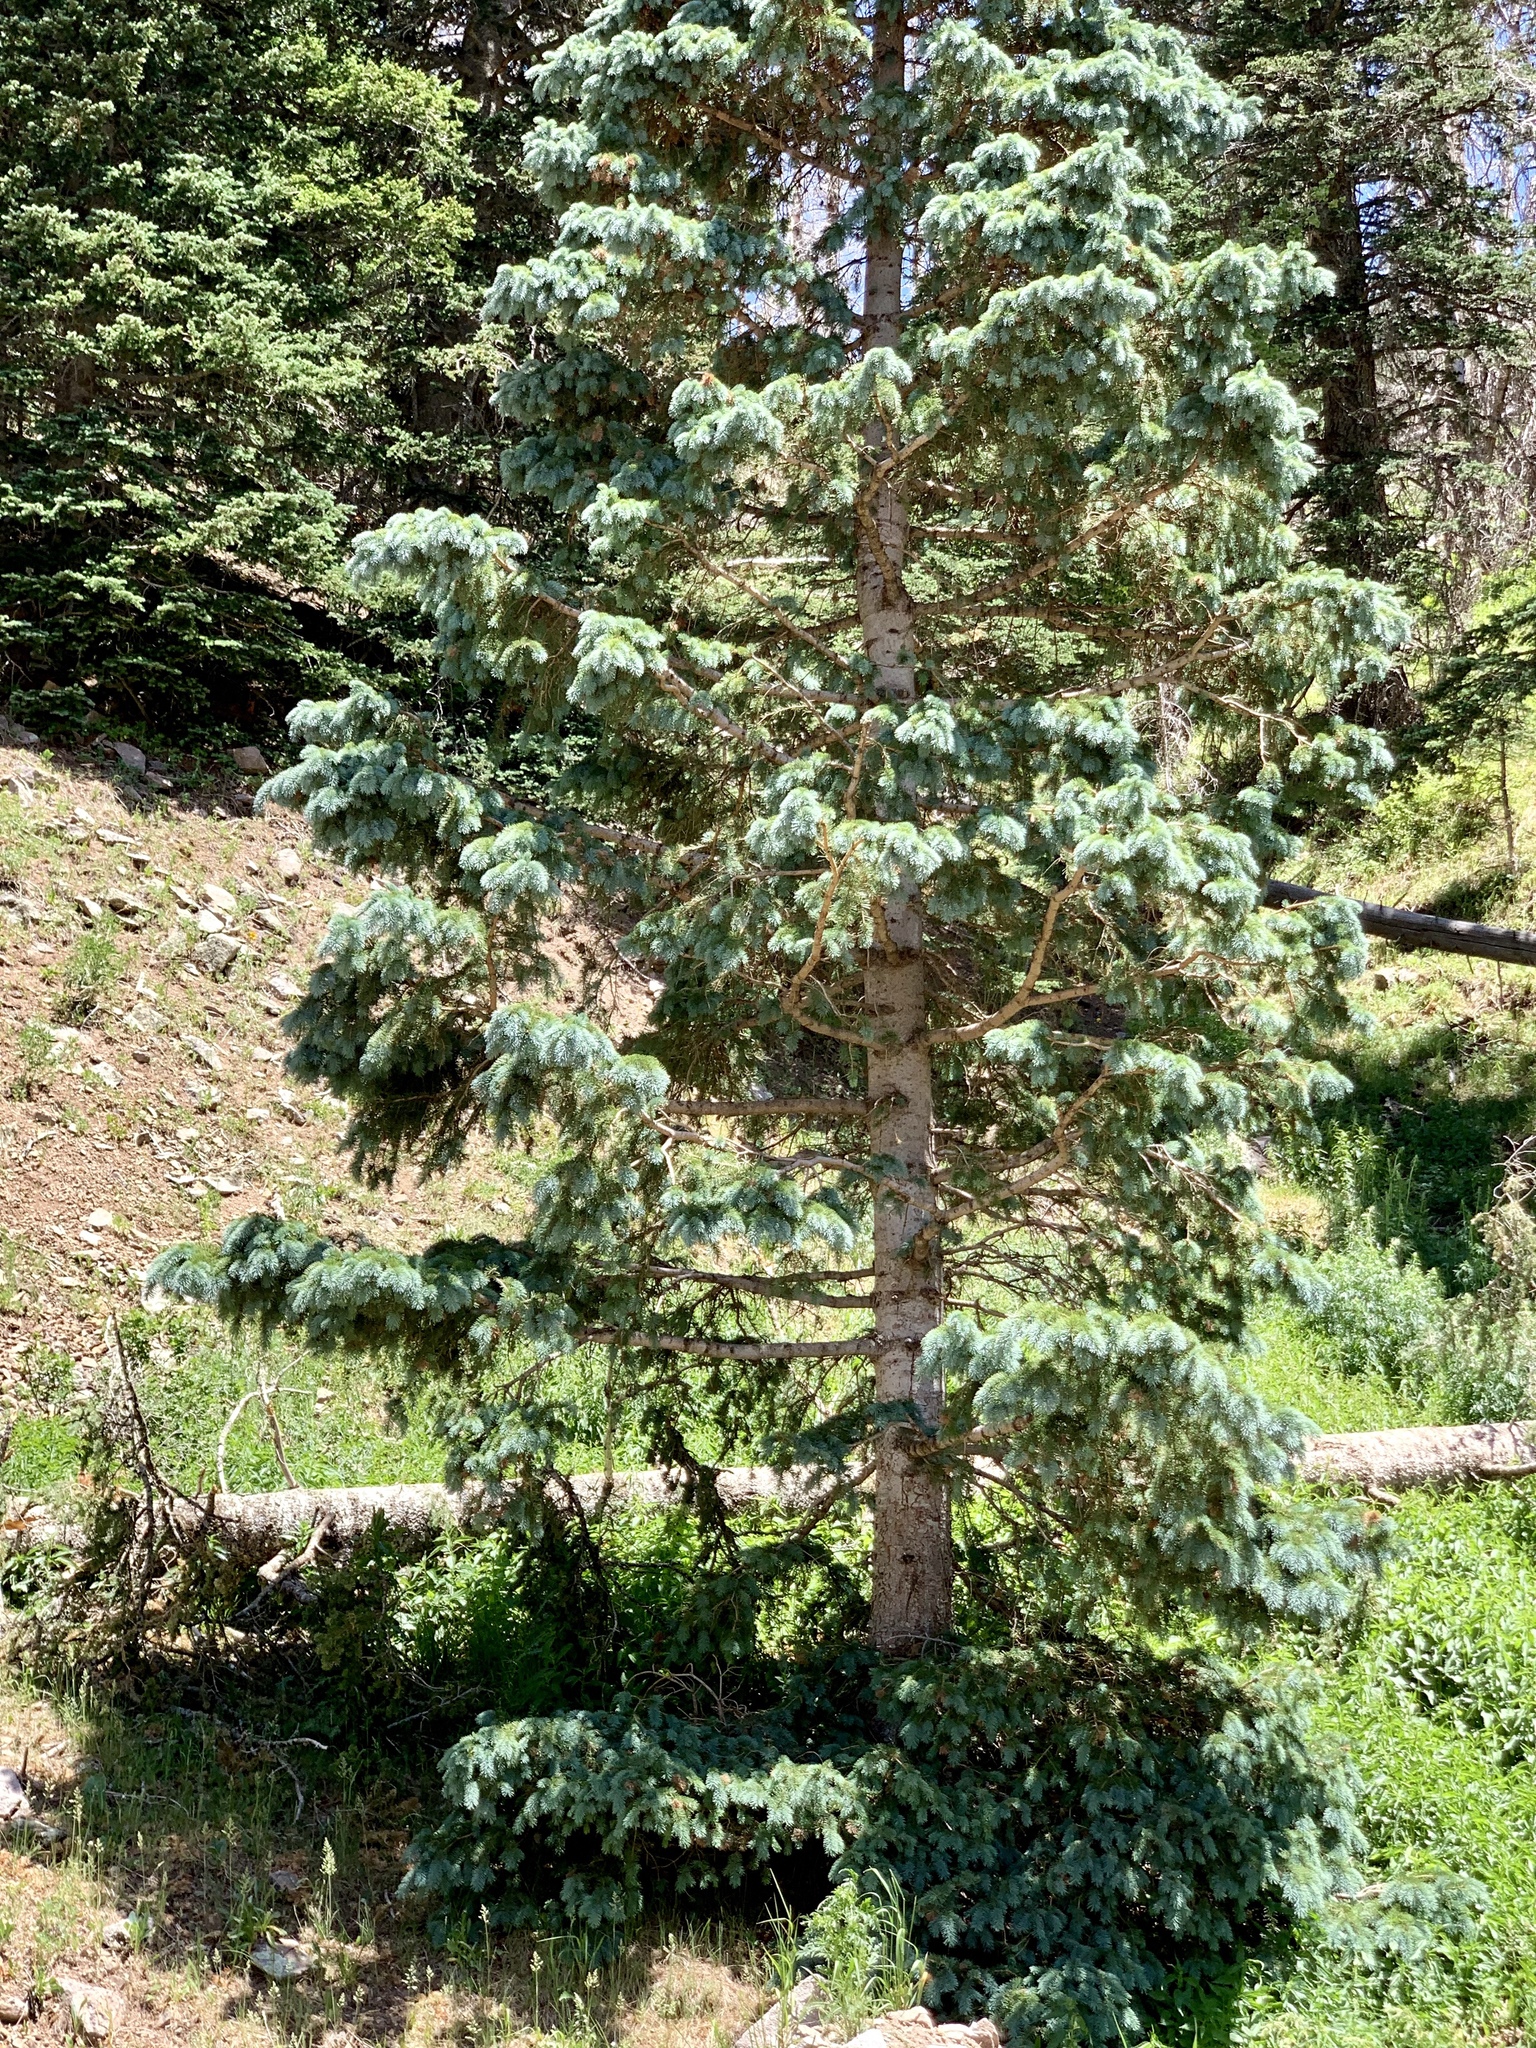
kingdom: Plantae
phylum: Tracheophyta
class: Pinopsida
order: Pinales
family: Pinaceae
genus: Picea
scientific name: Picea pungens
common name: Colorado spruce
